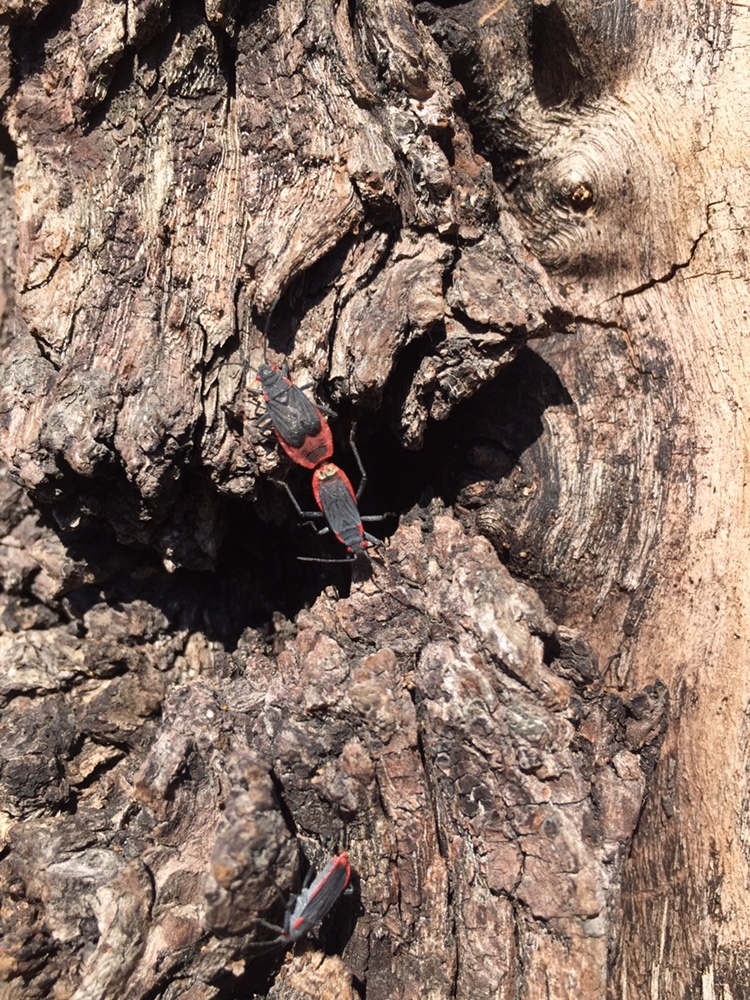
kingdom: Animalia
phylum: Arthropoda
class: Insecta
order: Hemiptera
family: Rhopalidae
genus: Jadera
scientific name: Jadera haematoloma
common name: Red-shouldered bug
